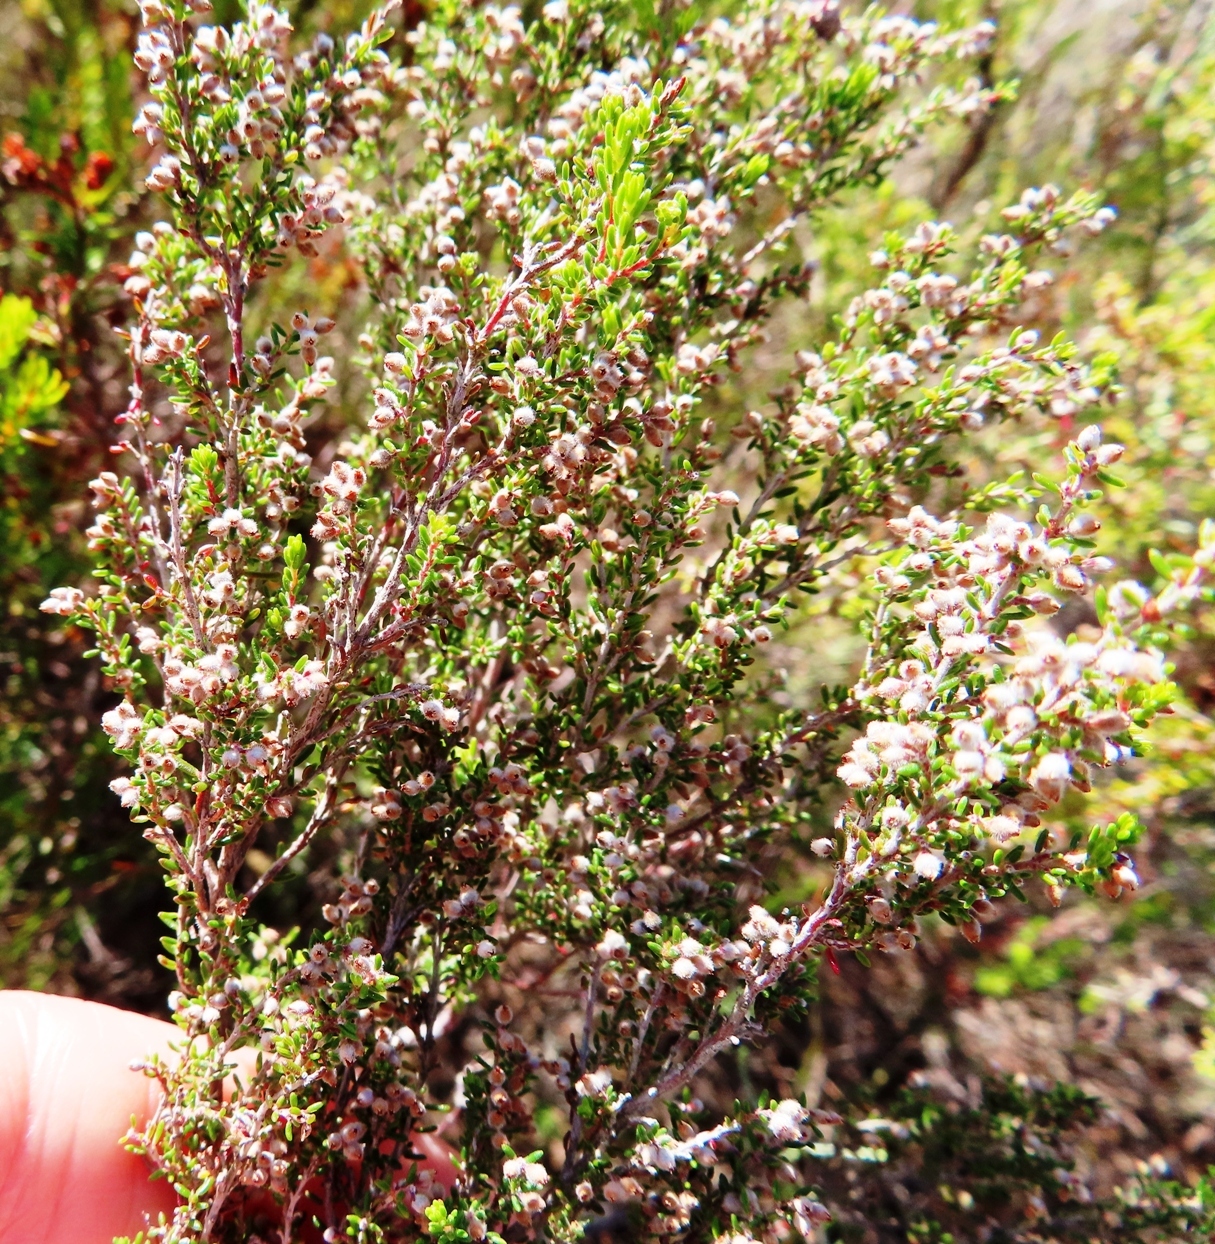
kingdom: Plantae
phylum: Tracheophyta
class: Magnoliopsida
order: Ericales
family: Ericaceae
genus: Erica
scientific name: Erica puberuliflora
